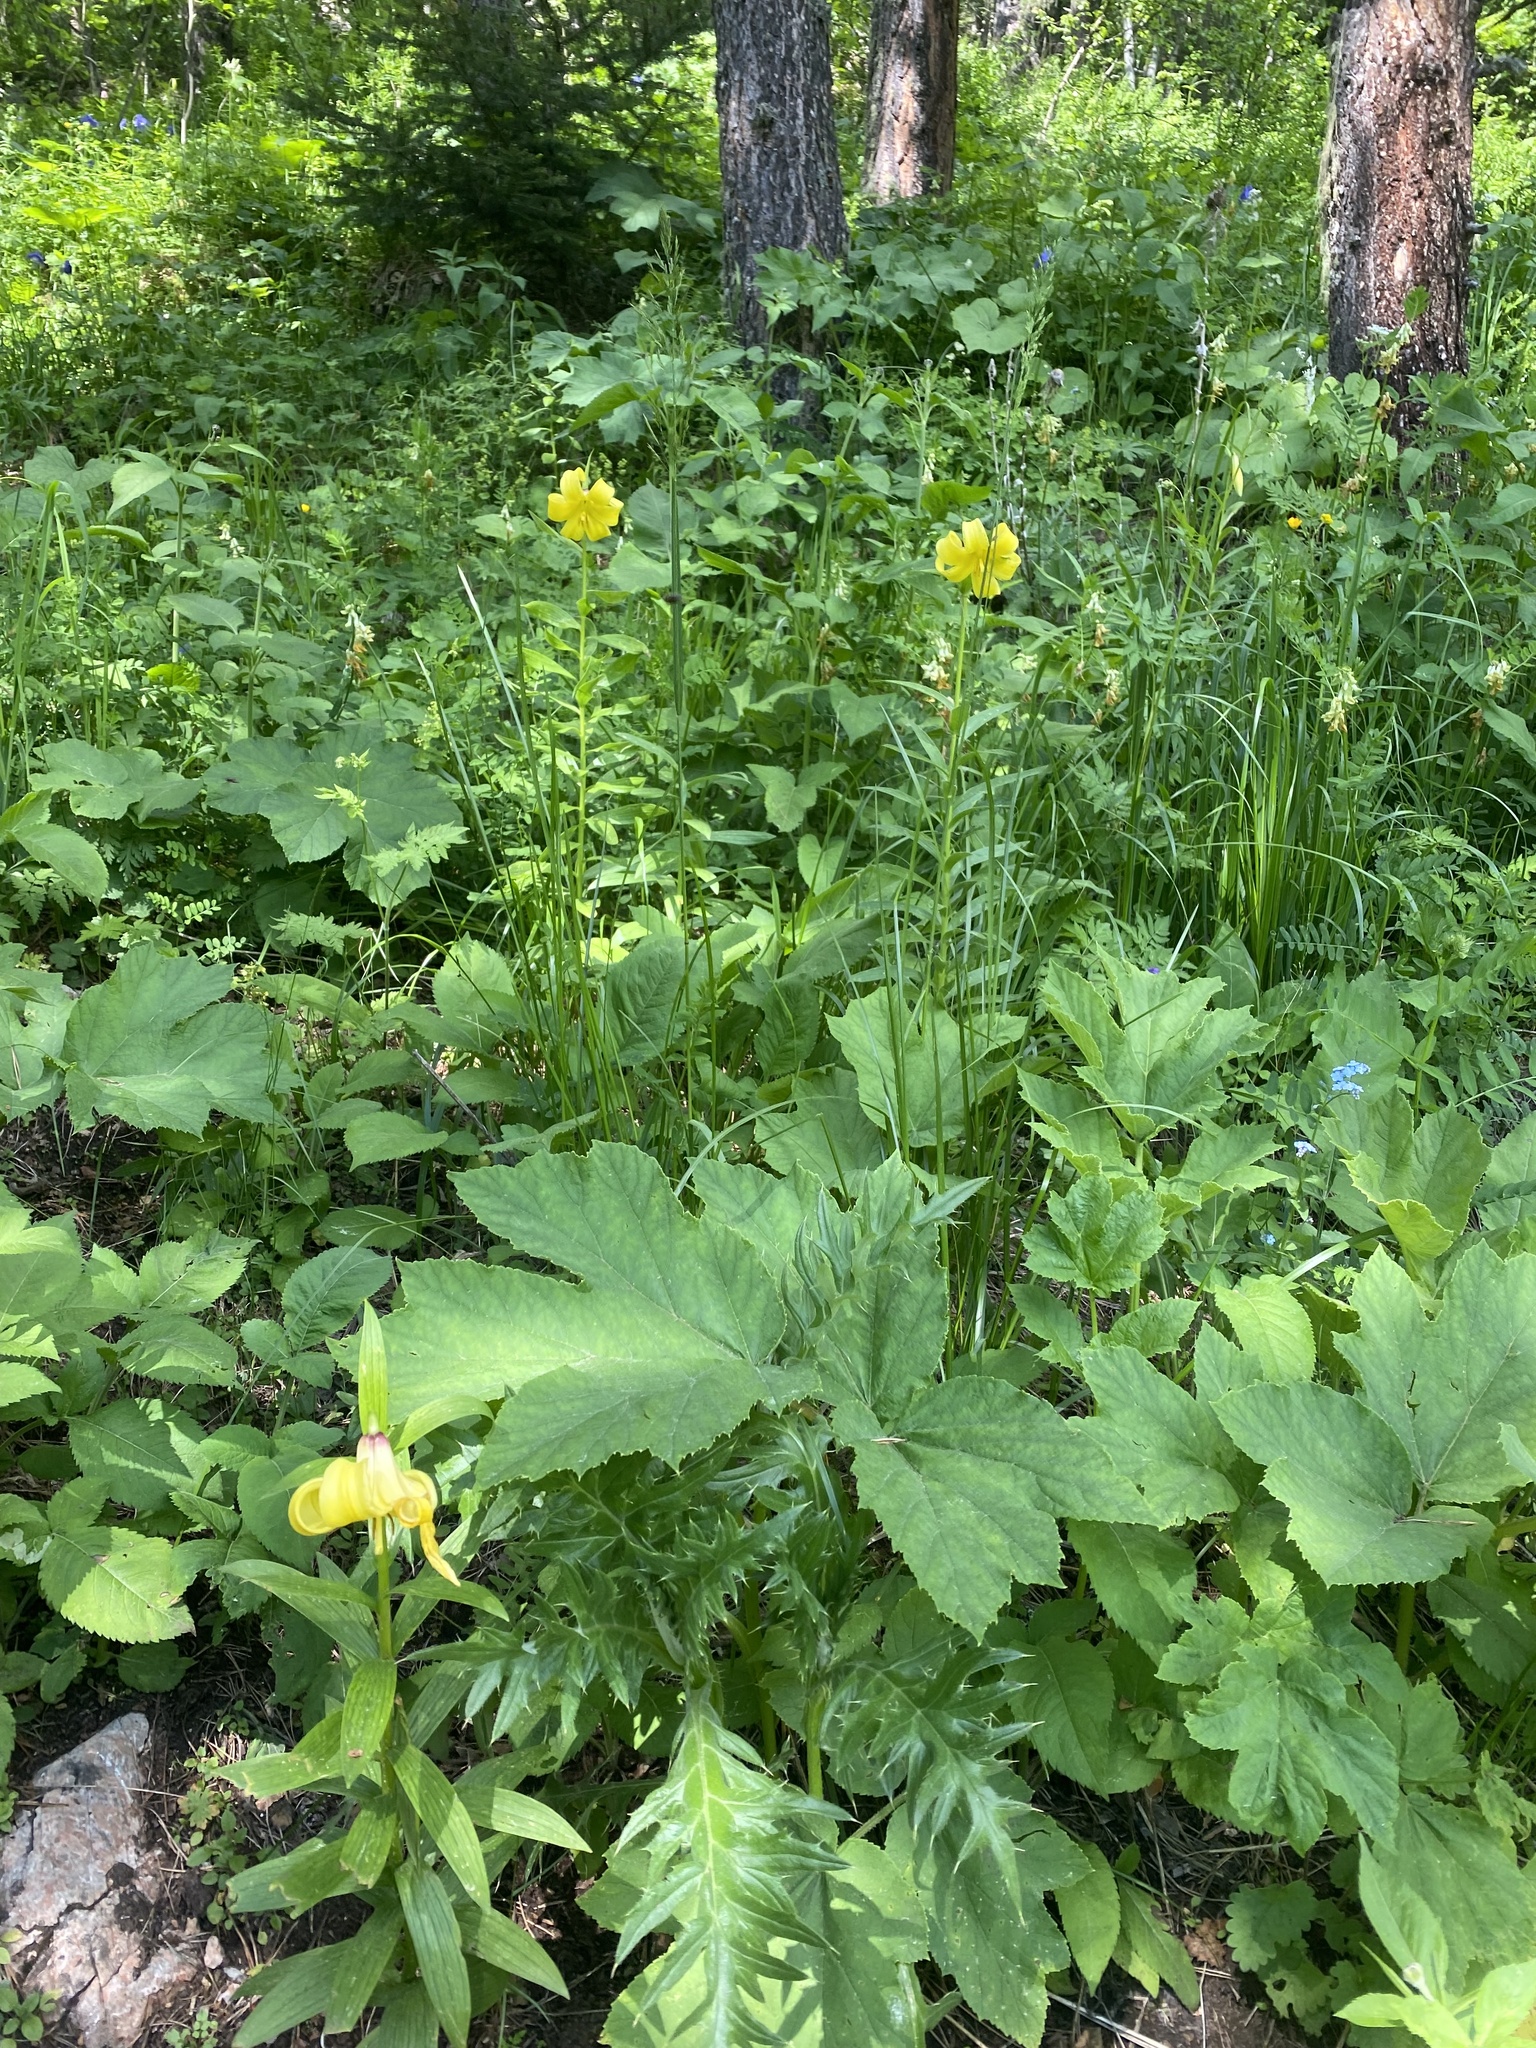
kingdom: Plantae
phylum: Tracheophyta
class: Liliopsida
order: Liliales
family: Liliaceae
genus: Lilium
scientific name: Lilium monadelphum
